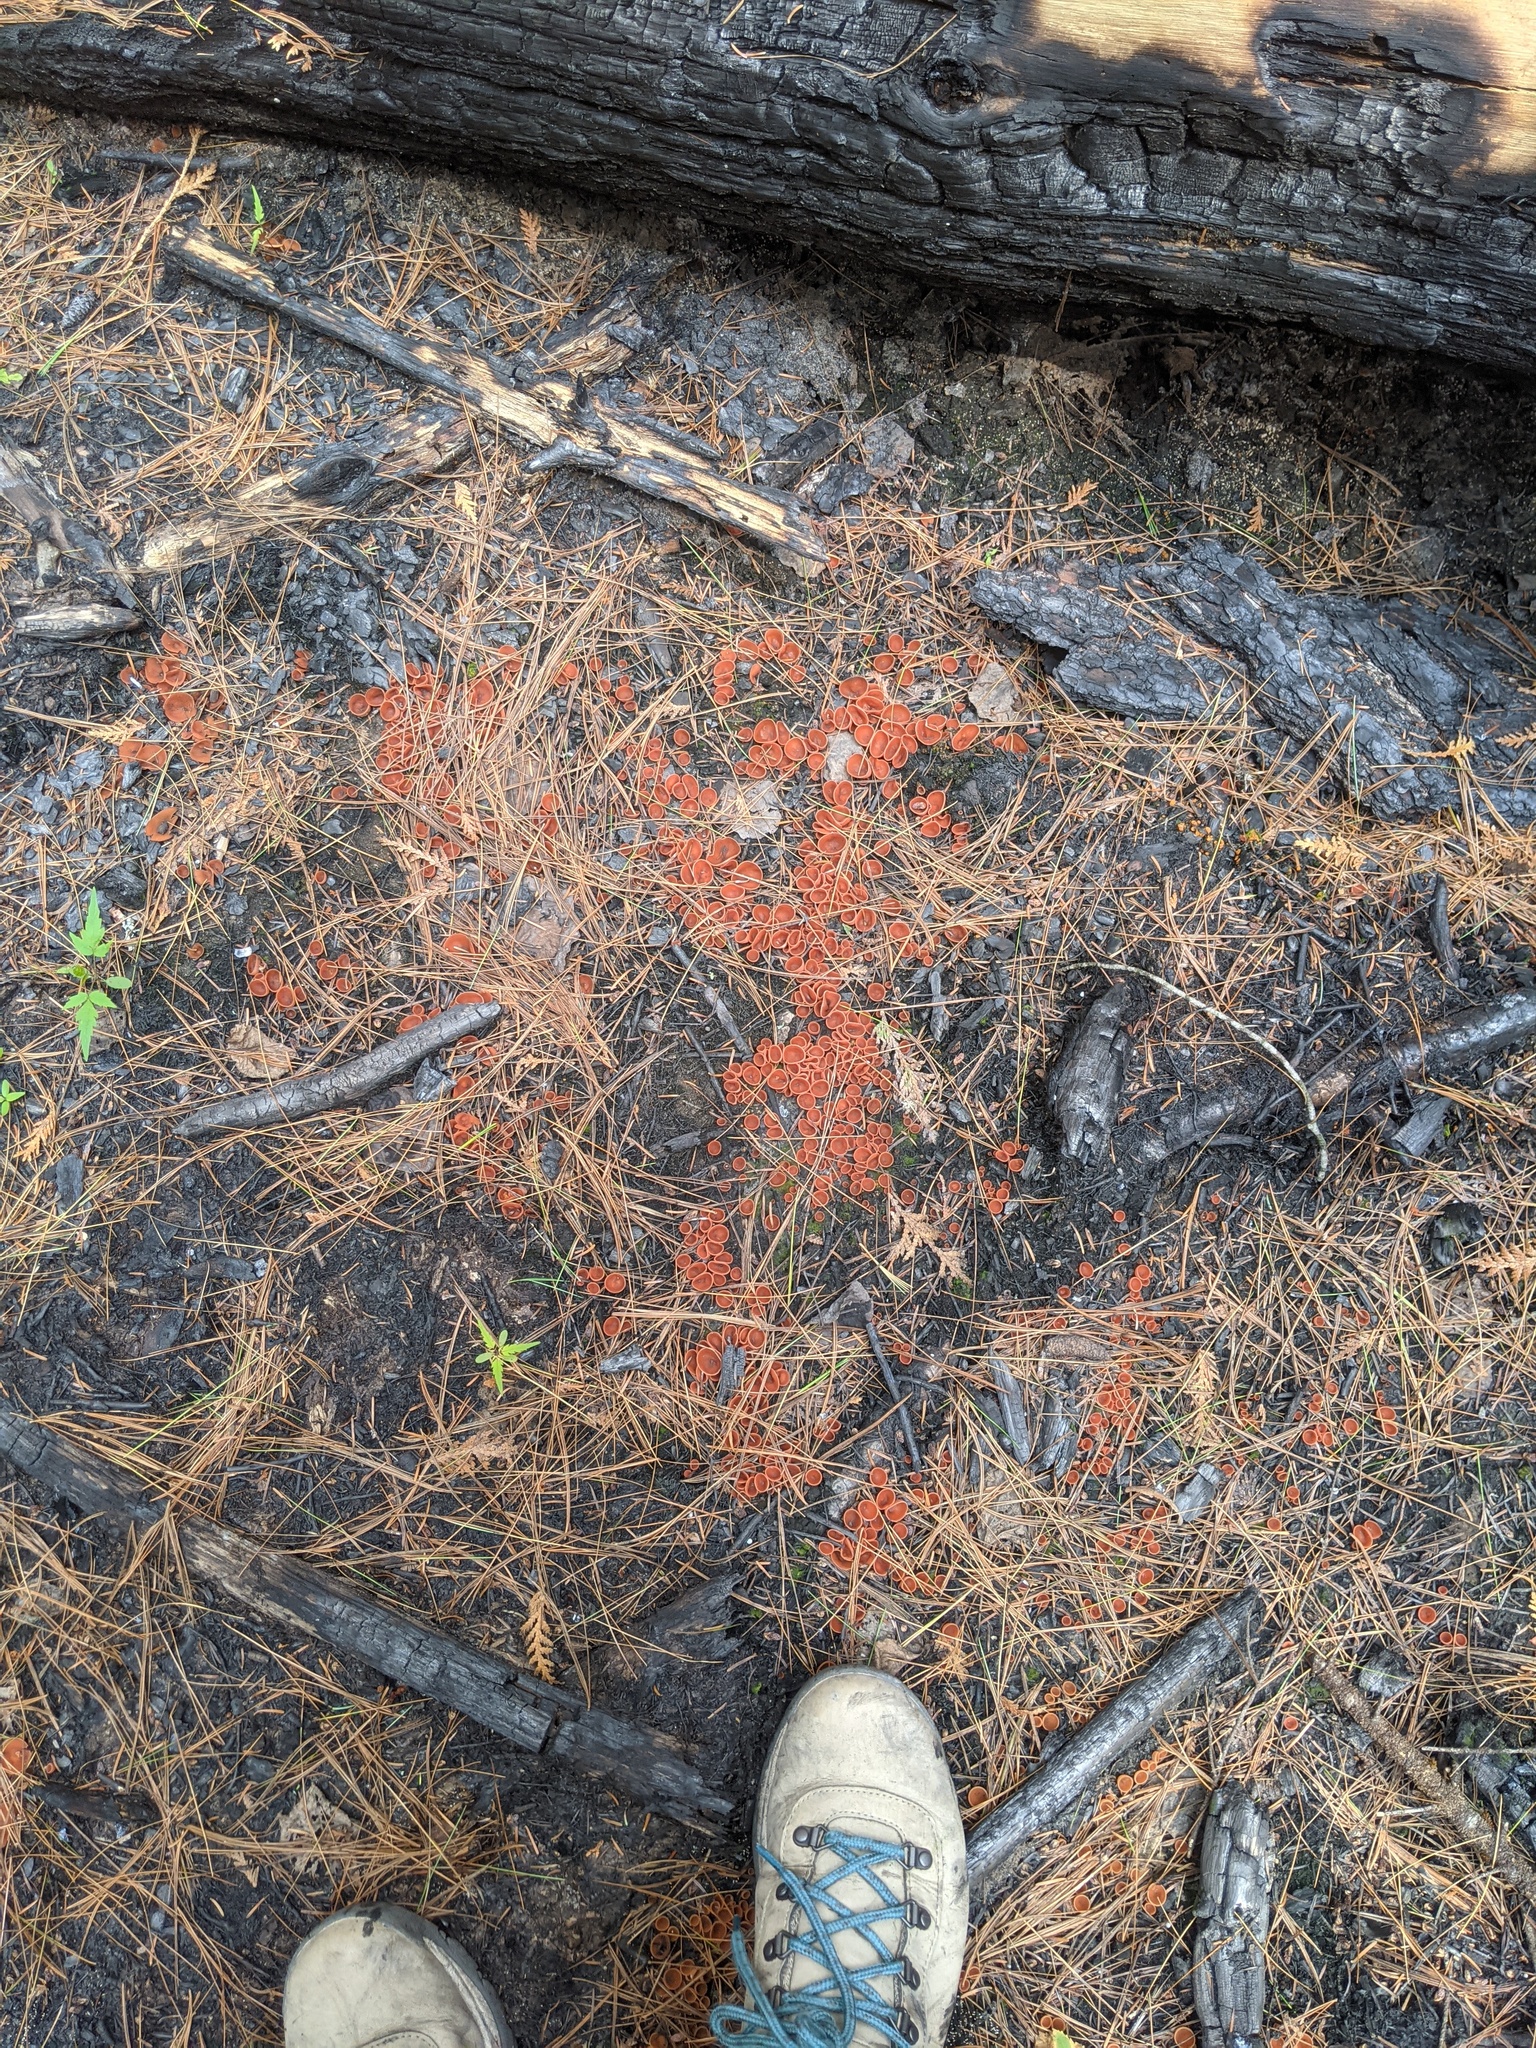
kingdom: Fungi
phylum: Ascomycota
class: Pezizomycetes
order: Pezizales
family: Pyronemataceae
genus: Pyropyxis
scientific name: Pyropyxis rubra
